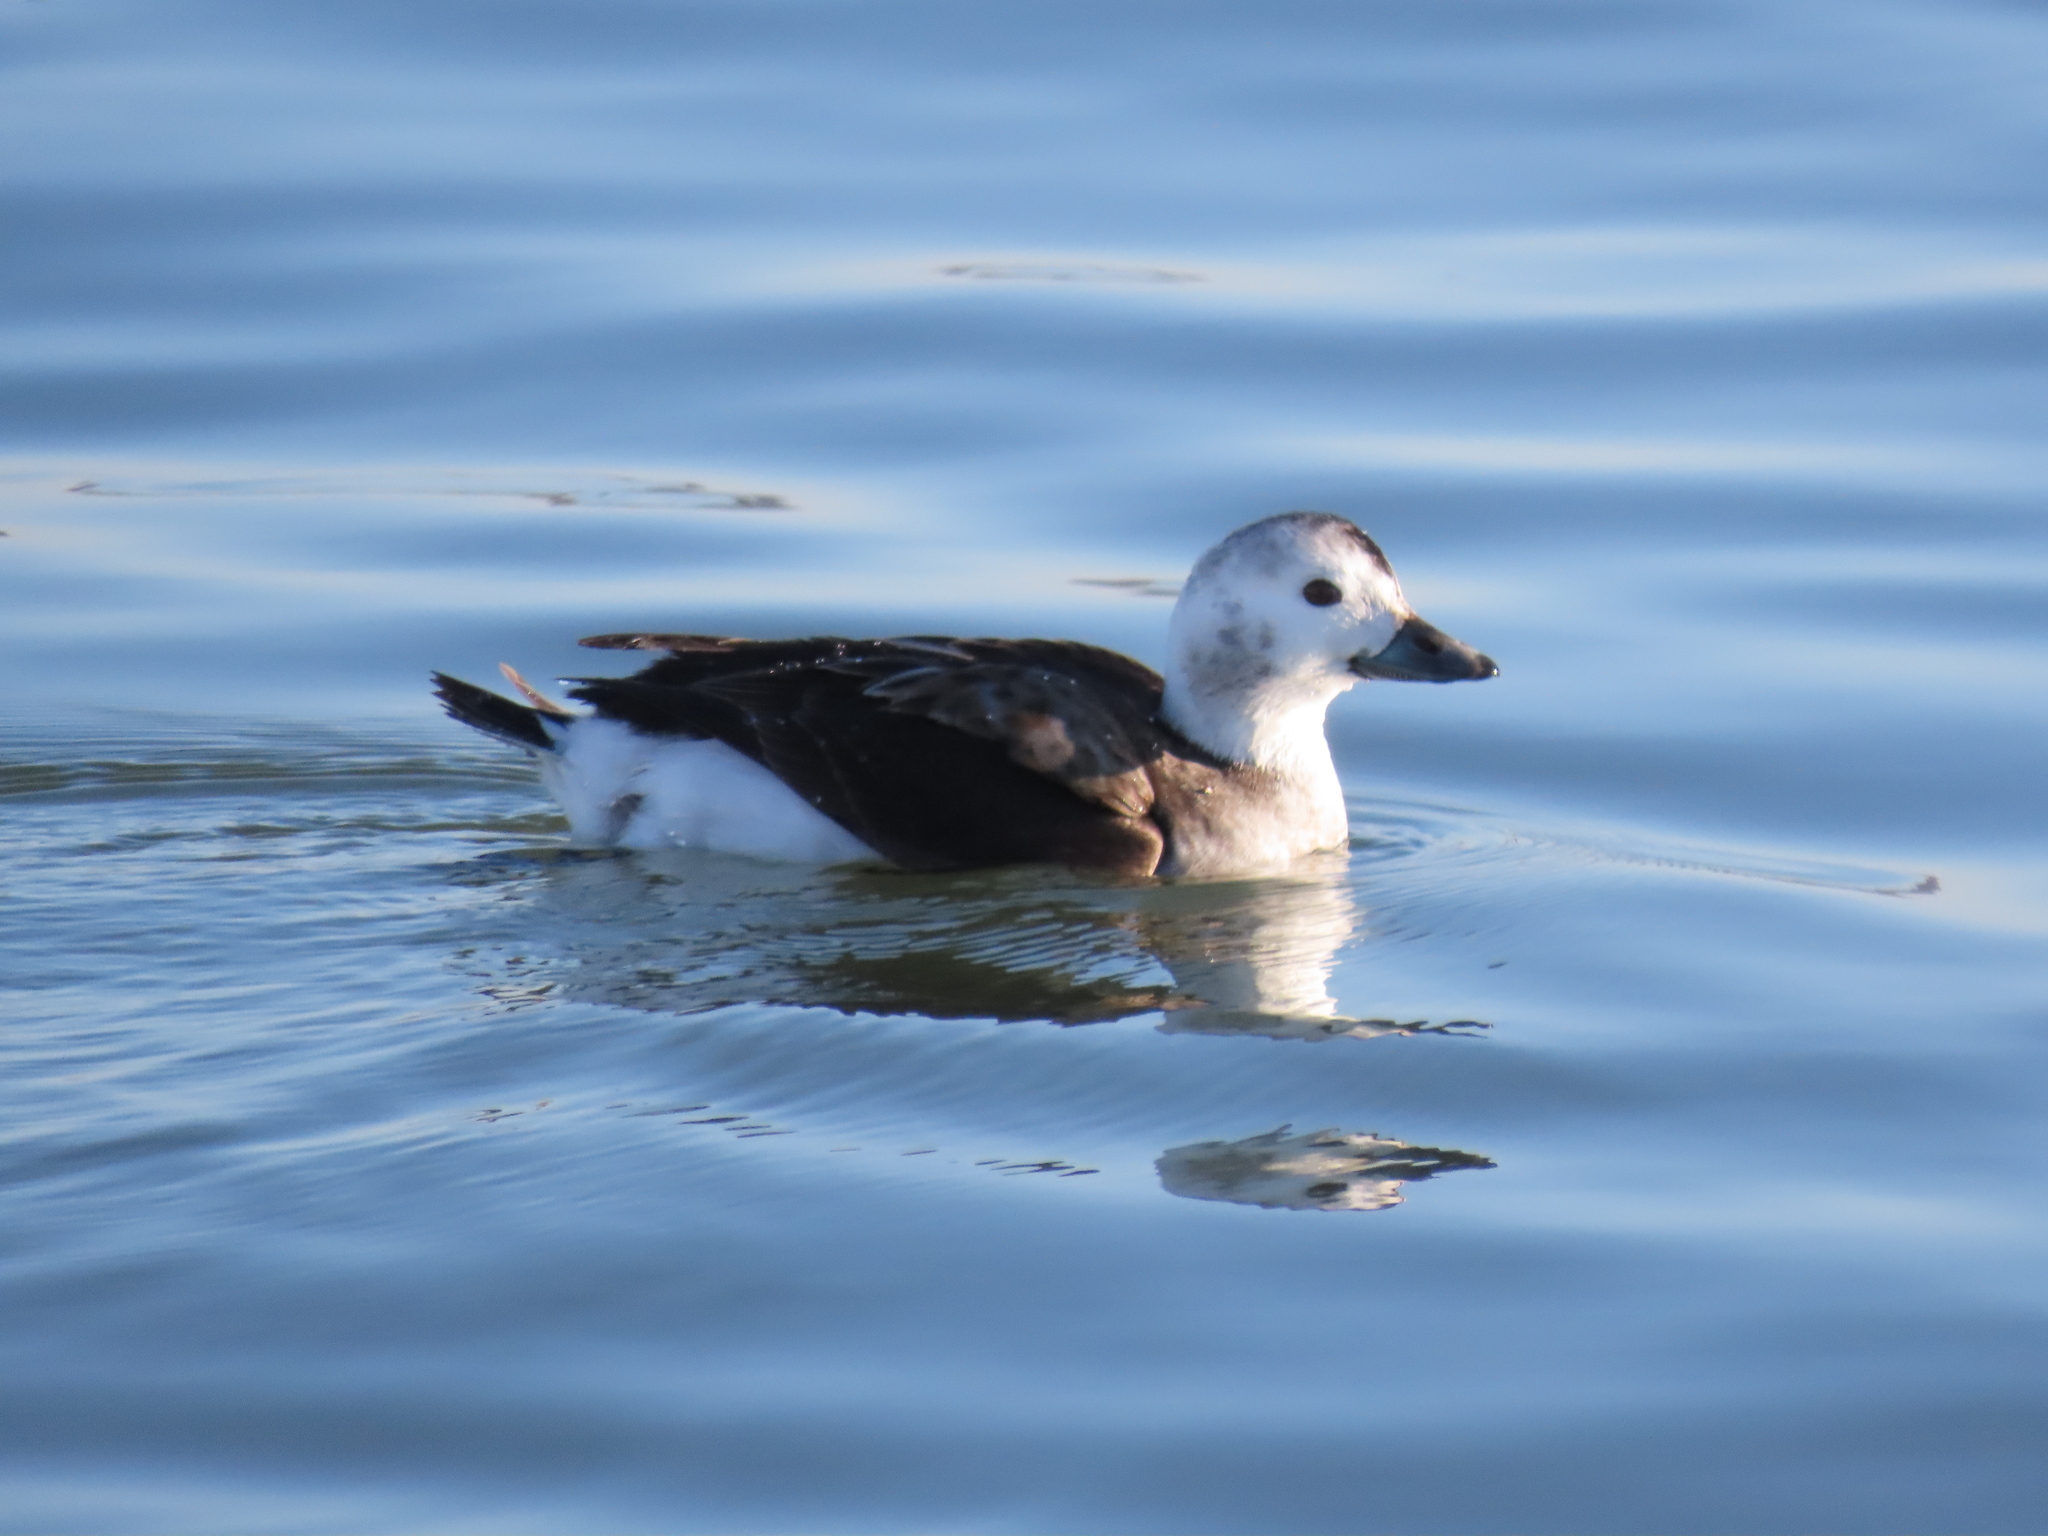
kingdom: Animalia
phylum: Chordata
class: Aves
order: Anseriformes
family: Anatidae
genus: Clangula
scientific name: Clangula hyemalis
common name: Long-tailed duck
